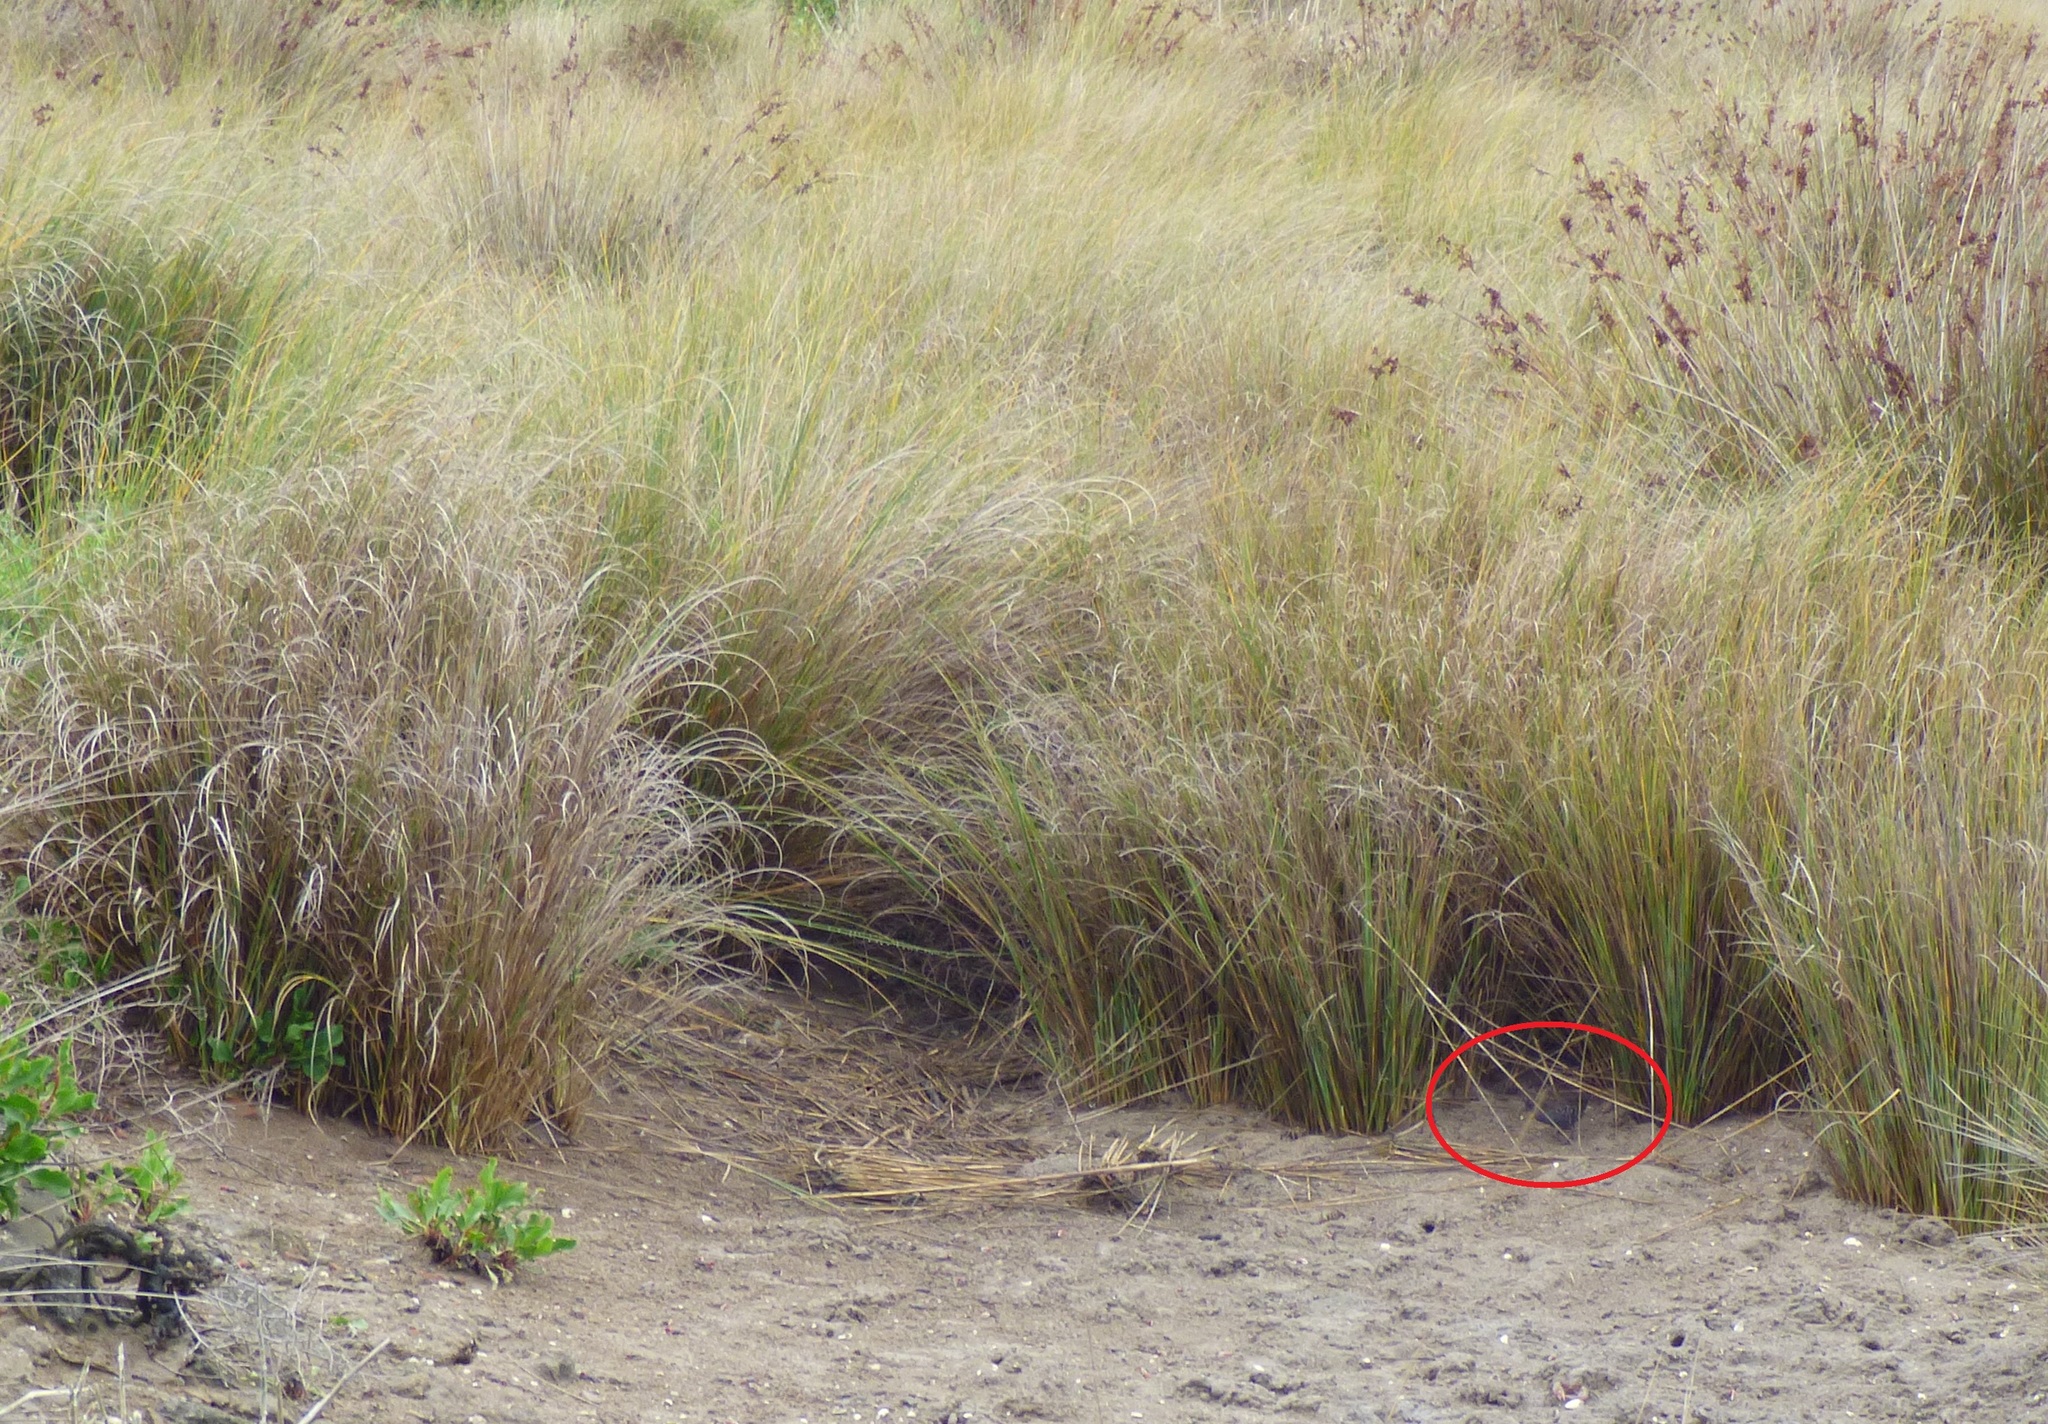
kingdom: Animalia
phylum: Chordata
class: Aves
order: Gruiformes
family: Rallidae
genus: Porzana
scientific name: Porzana spiloptera
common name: Dot-winged crake
